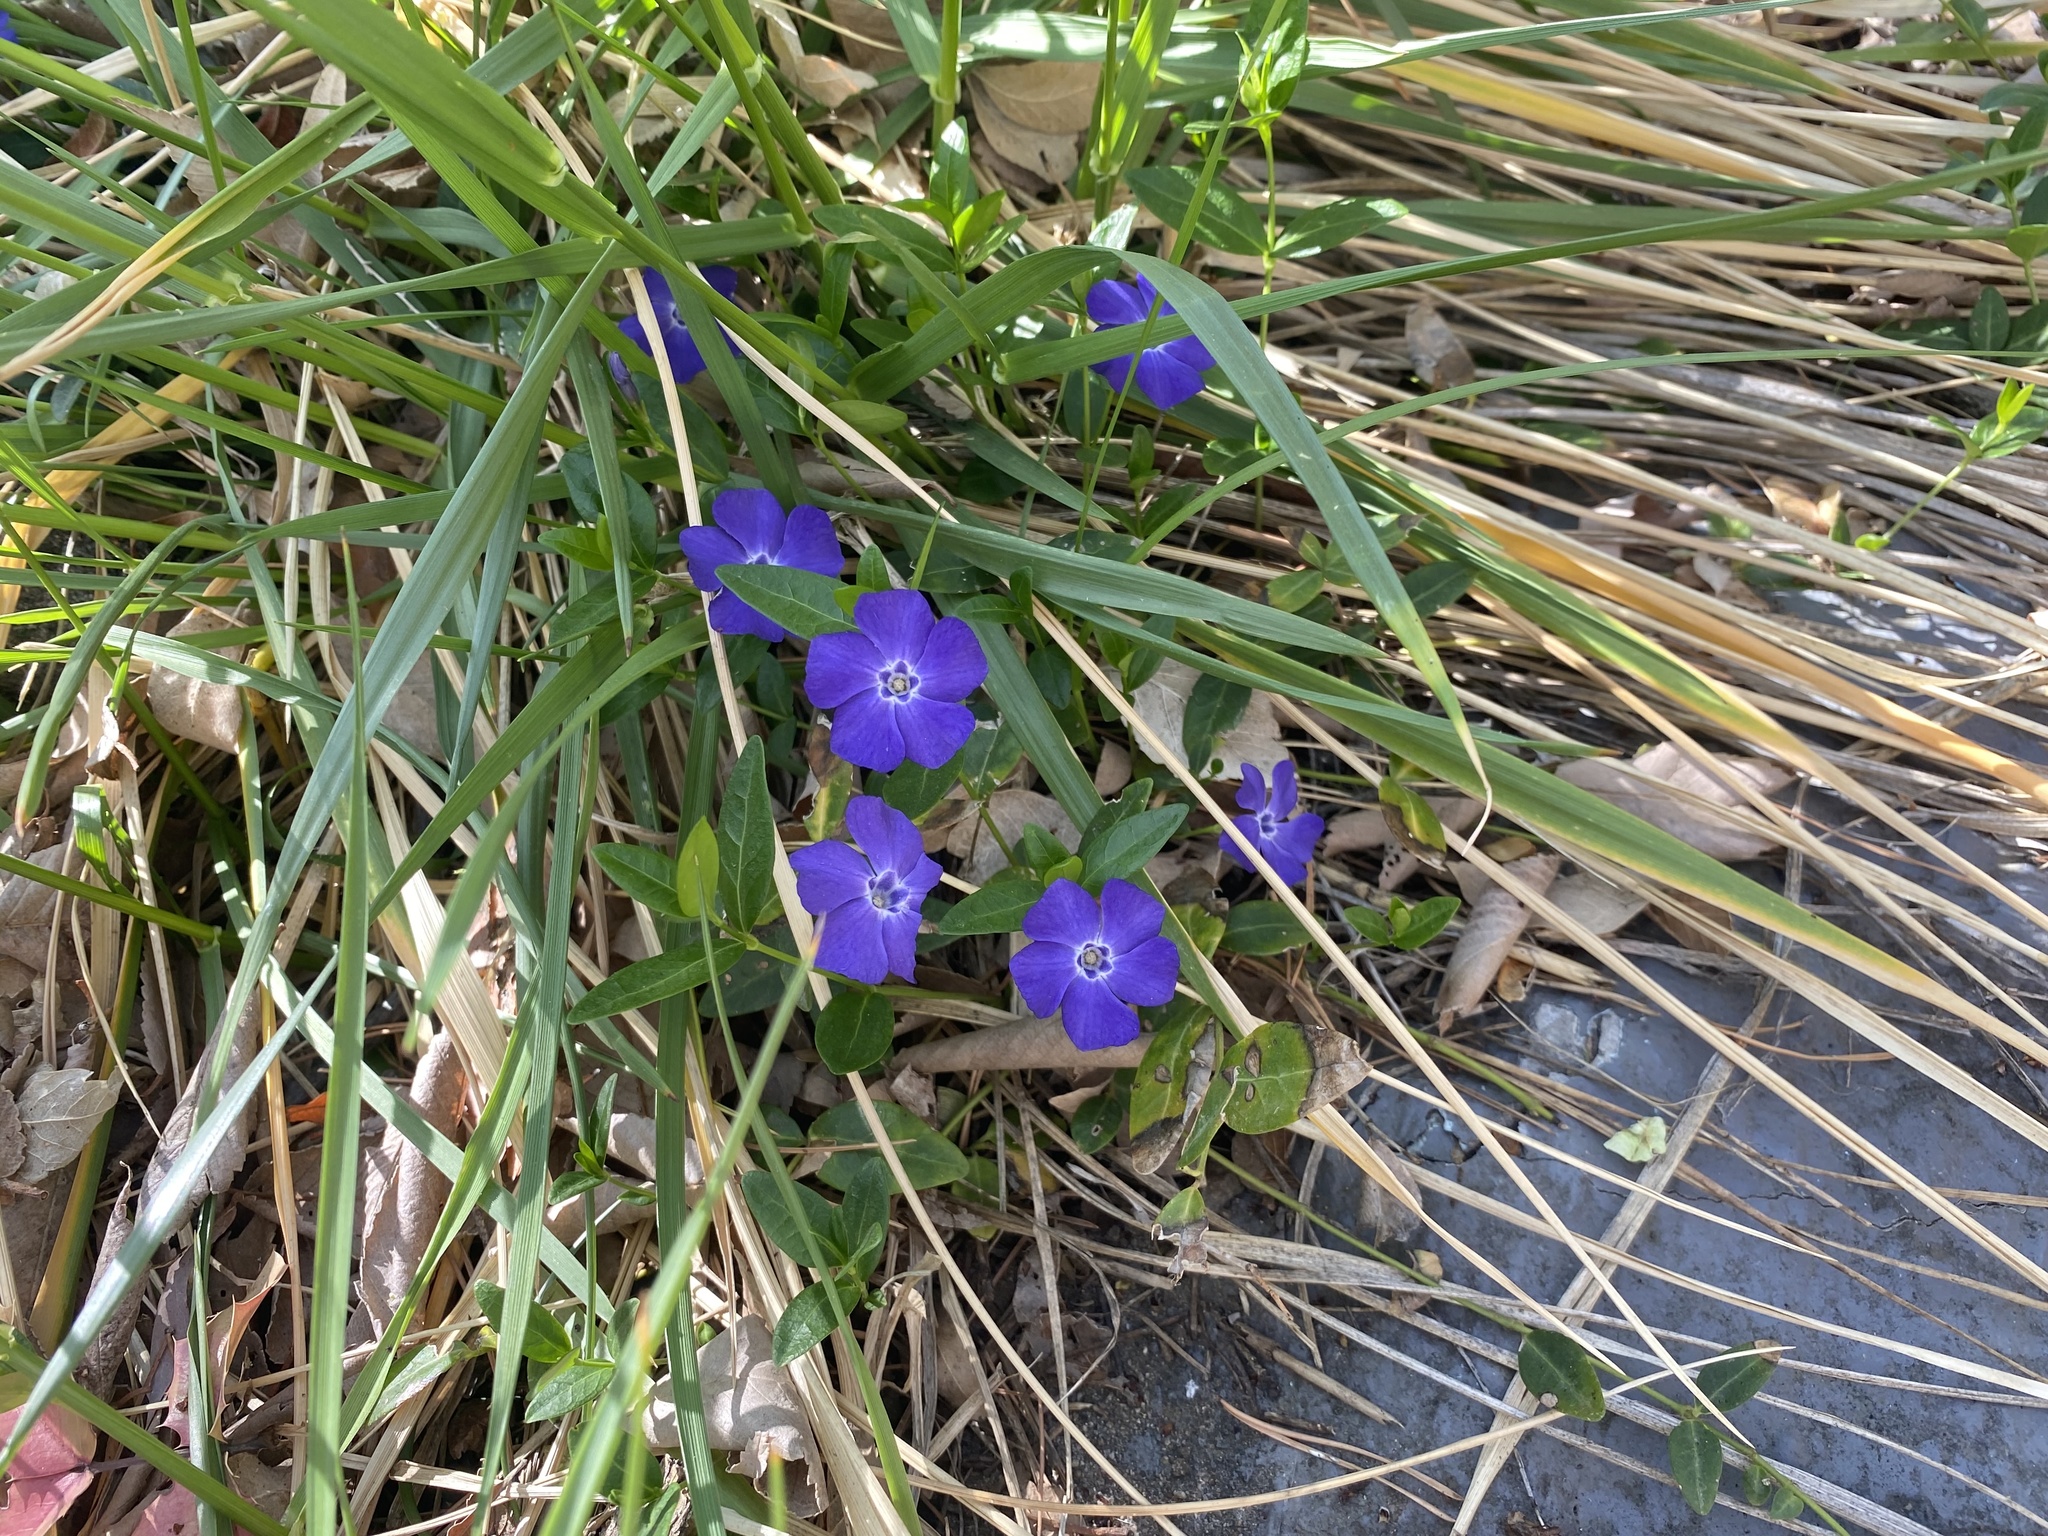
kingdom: Plantae
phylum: Tracheophyta
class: Magnoliopsida
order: Gentianales
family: Apocynaceae
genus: Vinca
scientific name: Vinca minor
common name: Lesser periwinkle
